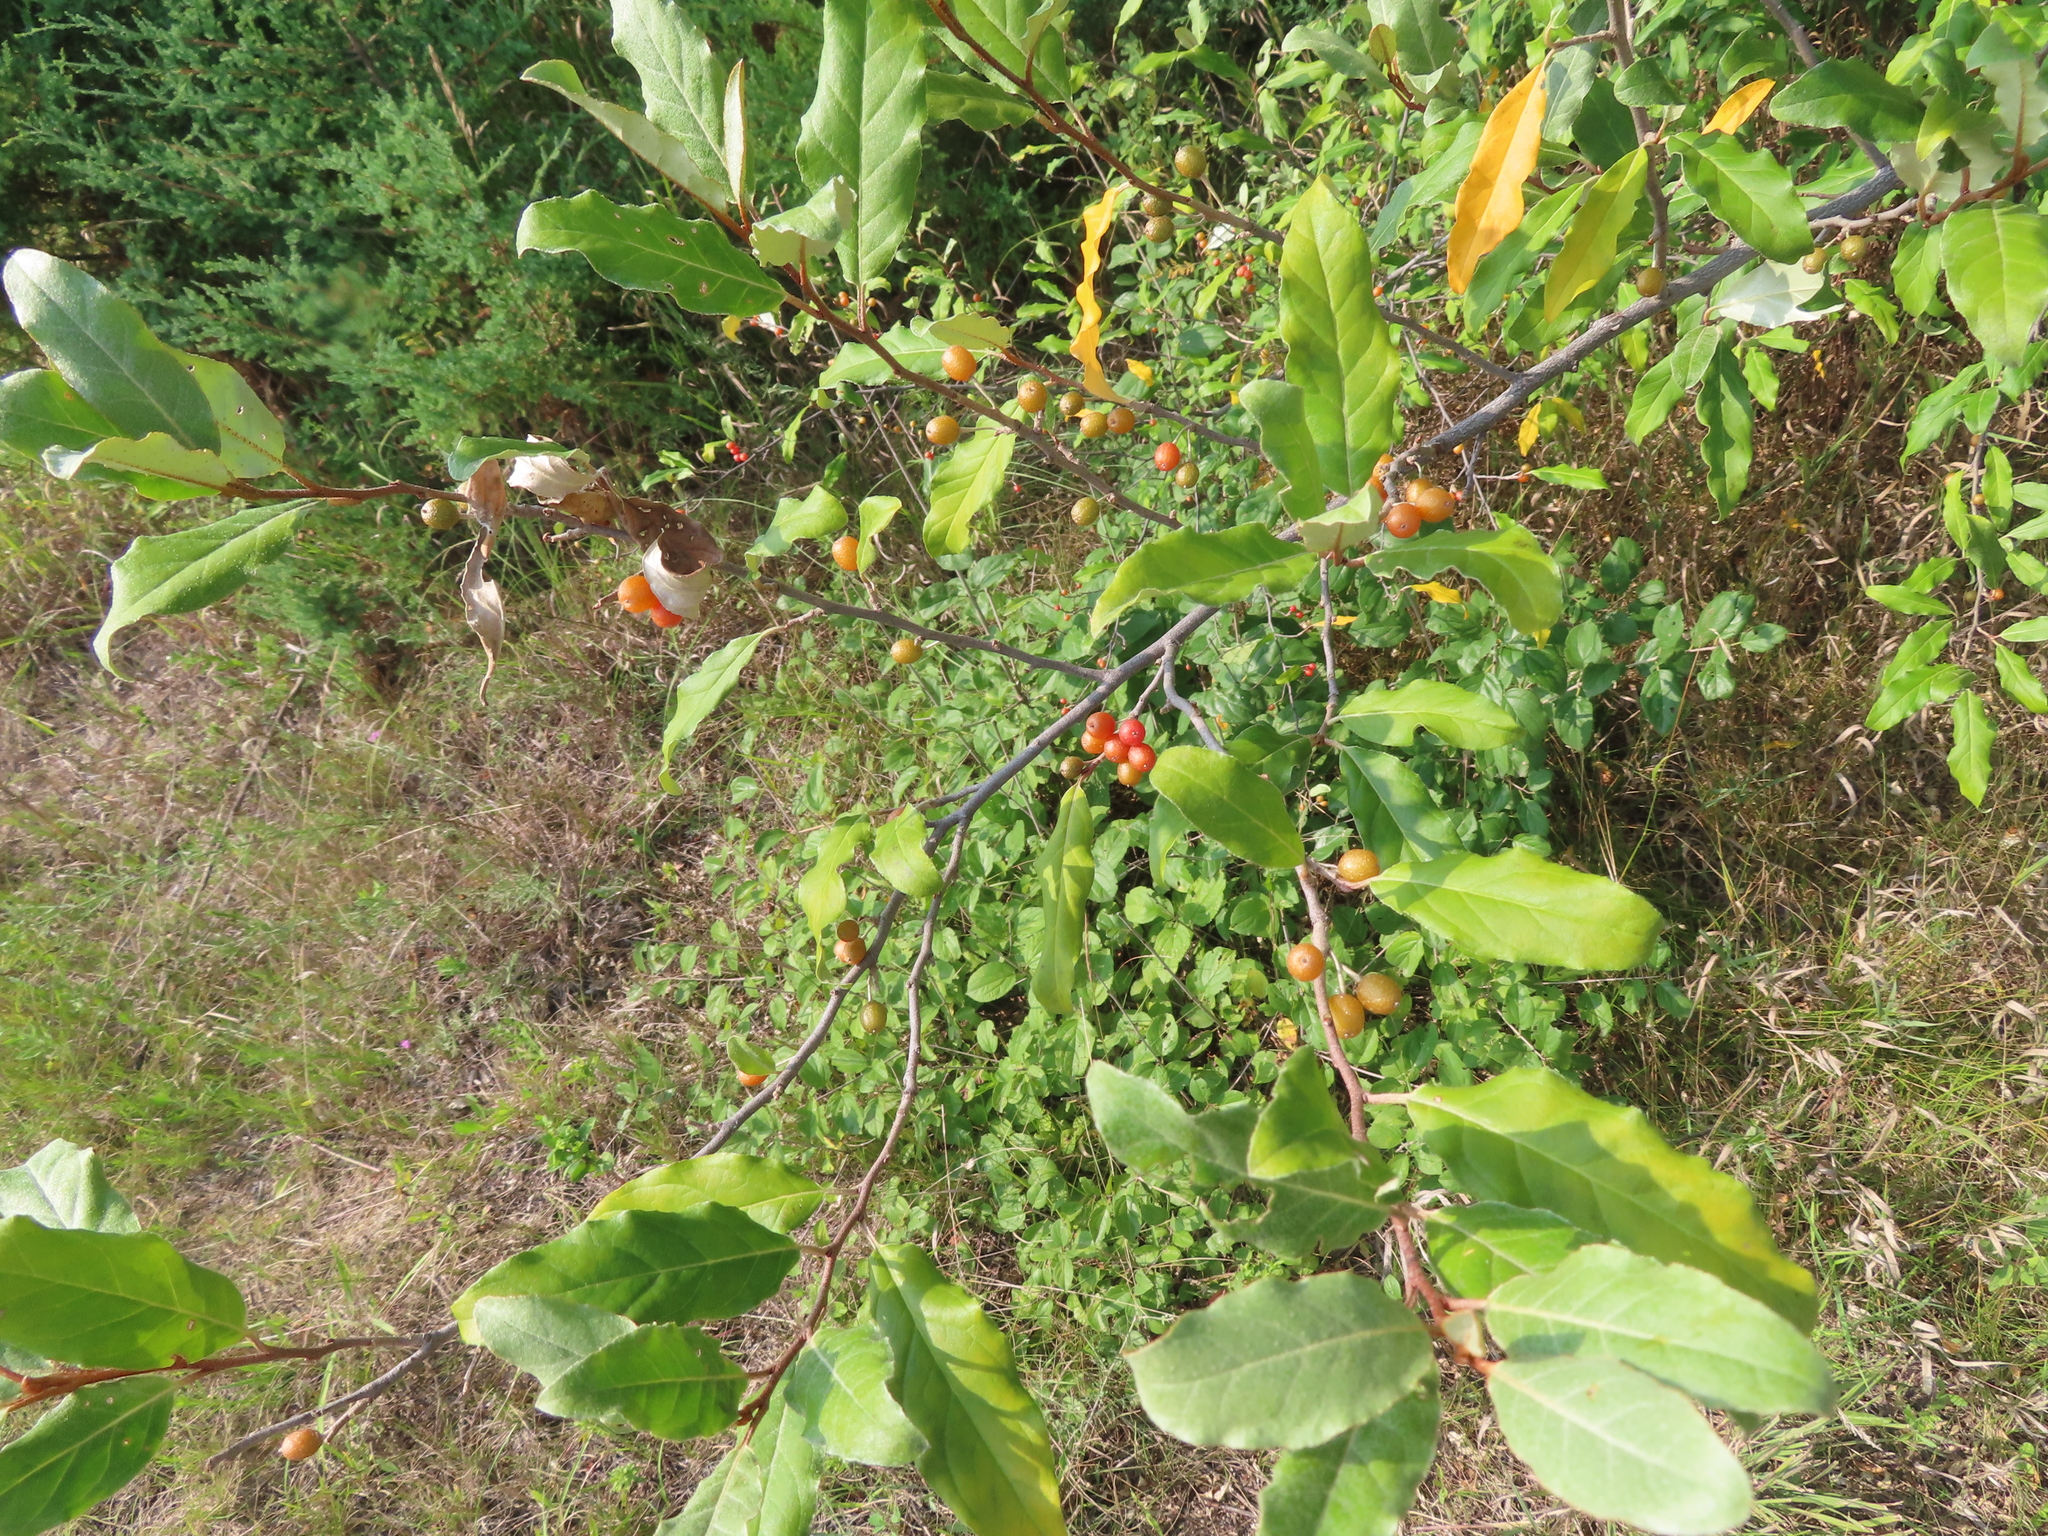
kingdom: Plantae
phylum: Tracheophyta
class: Magnoliopsida
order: Rosales
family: Elaeagnaceae
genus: Elaeagnus
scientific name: Elaeagnus umbellata
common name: Autumn olive
